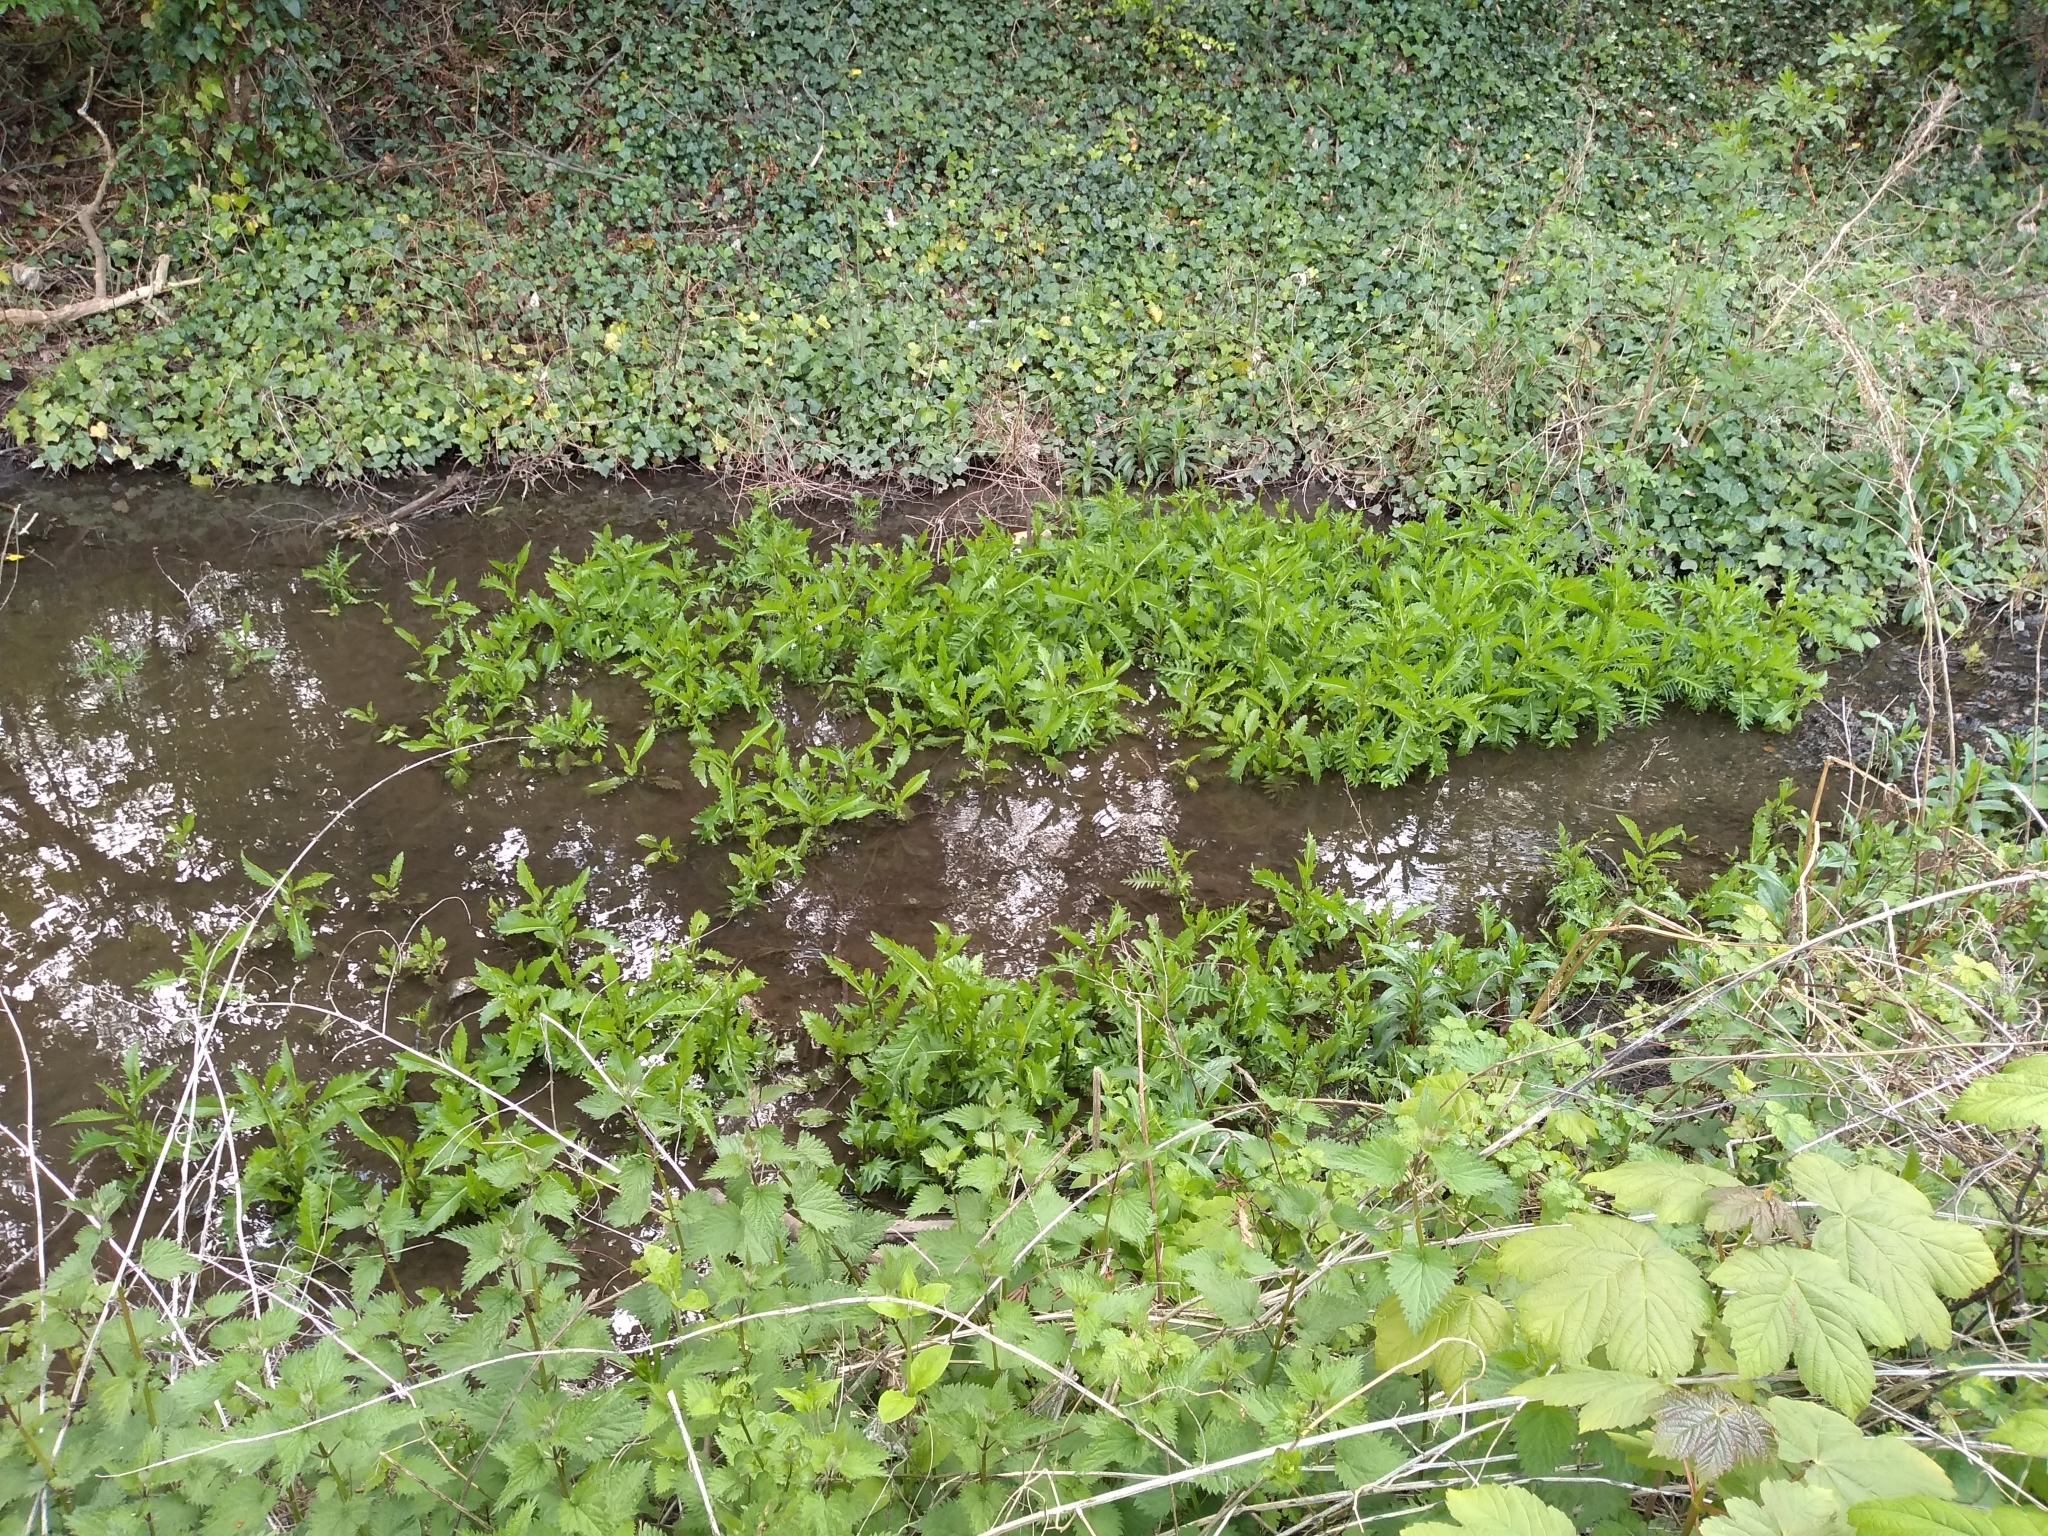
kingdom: Plantae
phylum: Tracheophyta
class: Magnoliopsida
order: Lamiales
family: Lamiaceae
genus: Lycopus
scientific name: Lycopus europaeus
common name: European bugleweed
